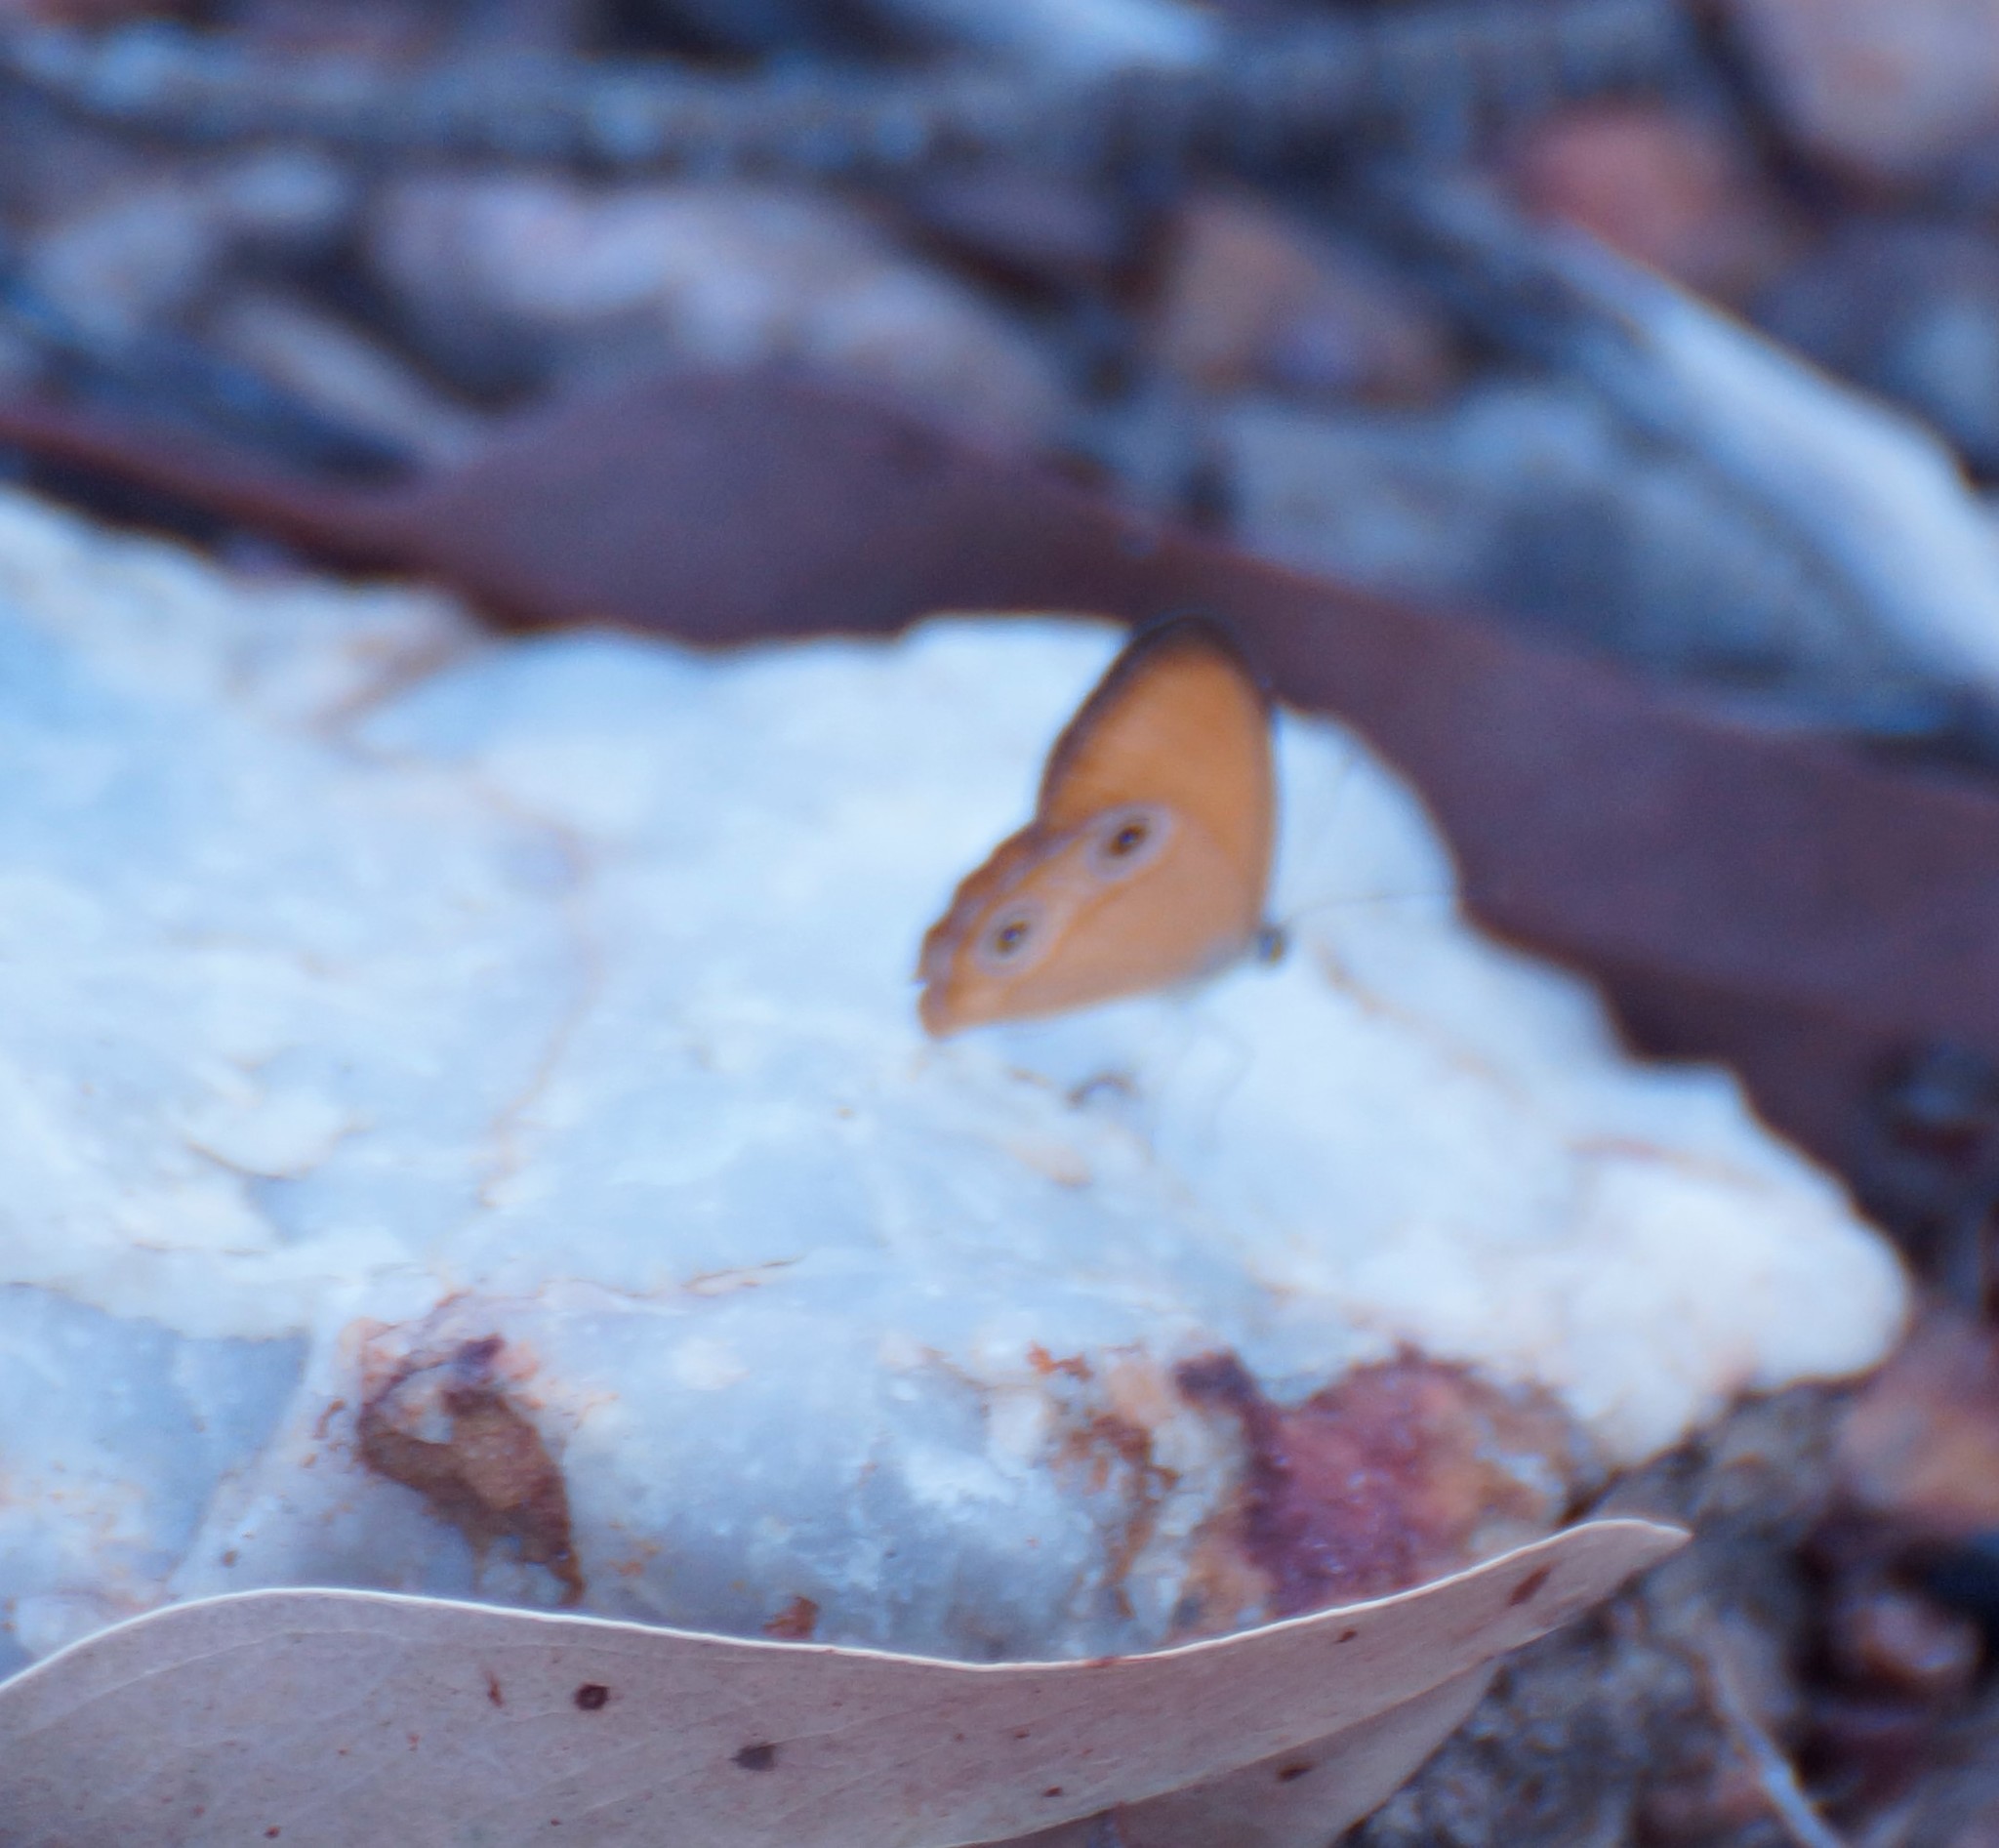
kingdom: Animalia
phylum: Arthropoda
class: Insecta
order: Lepidoptera
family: Nymphalidae
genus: Hypocysta
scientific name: Hypocysta adiante
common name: Orange ringlet
